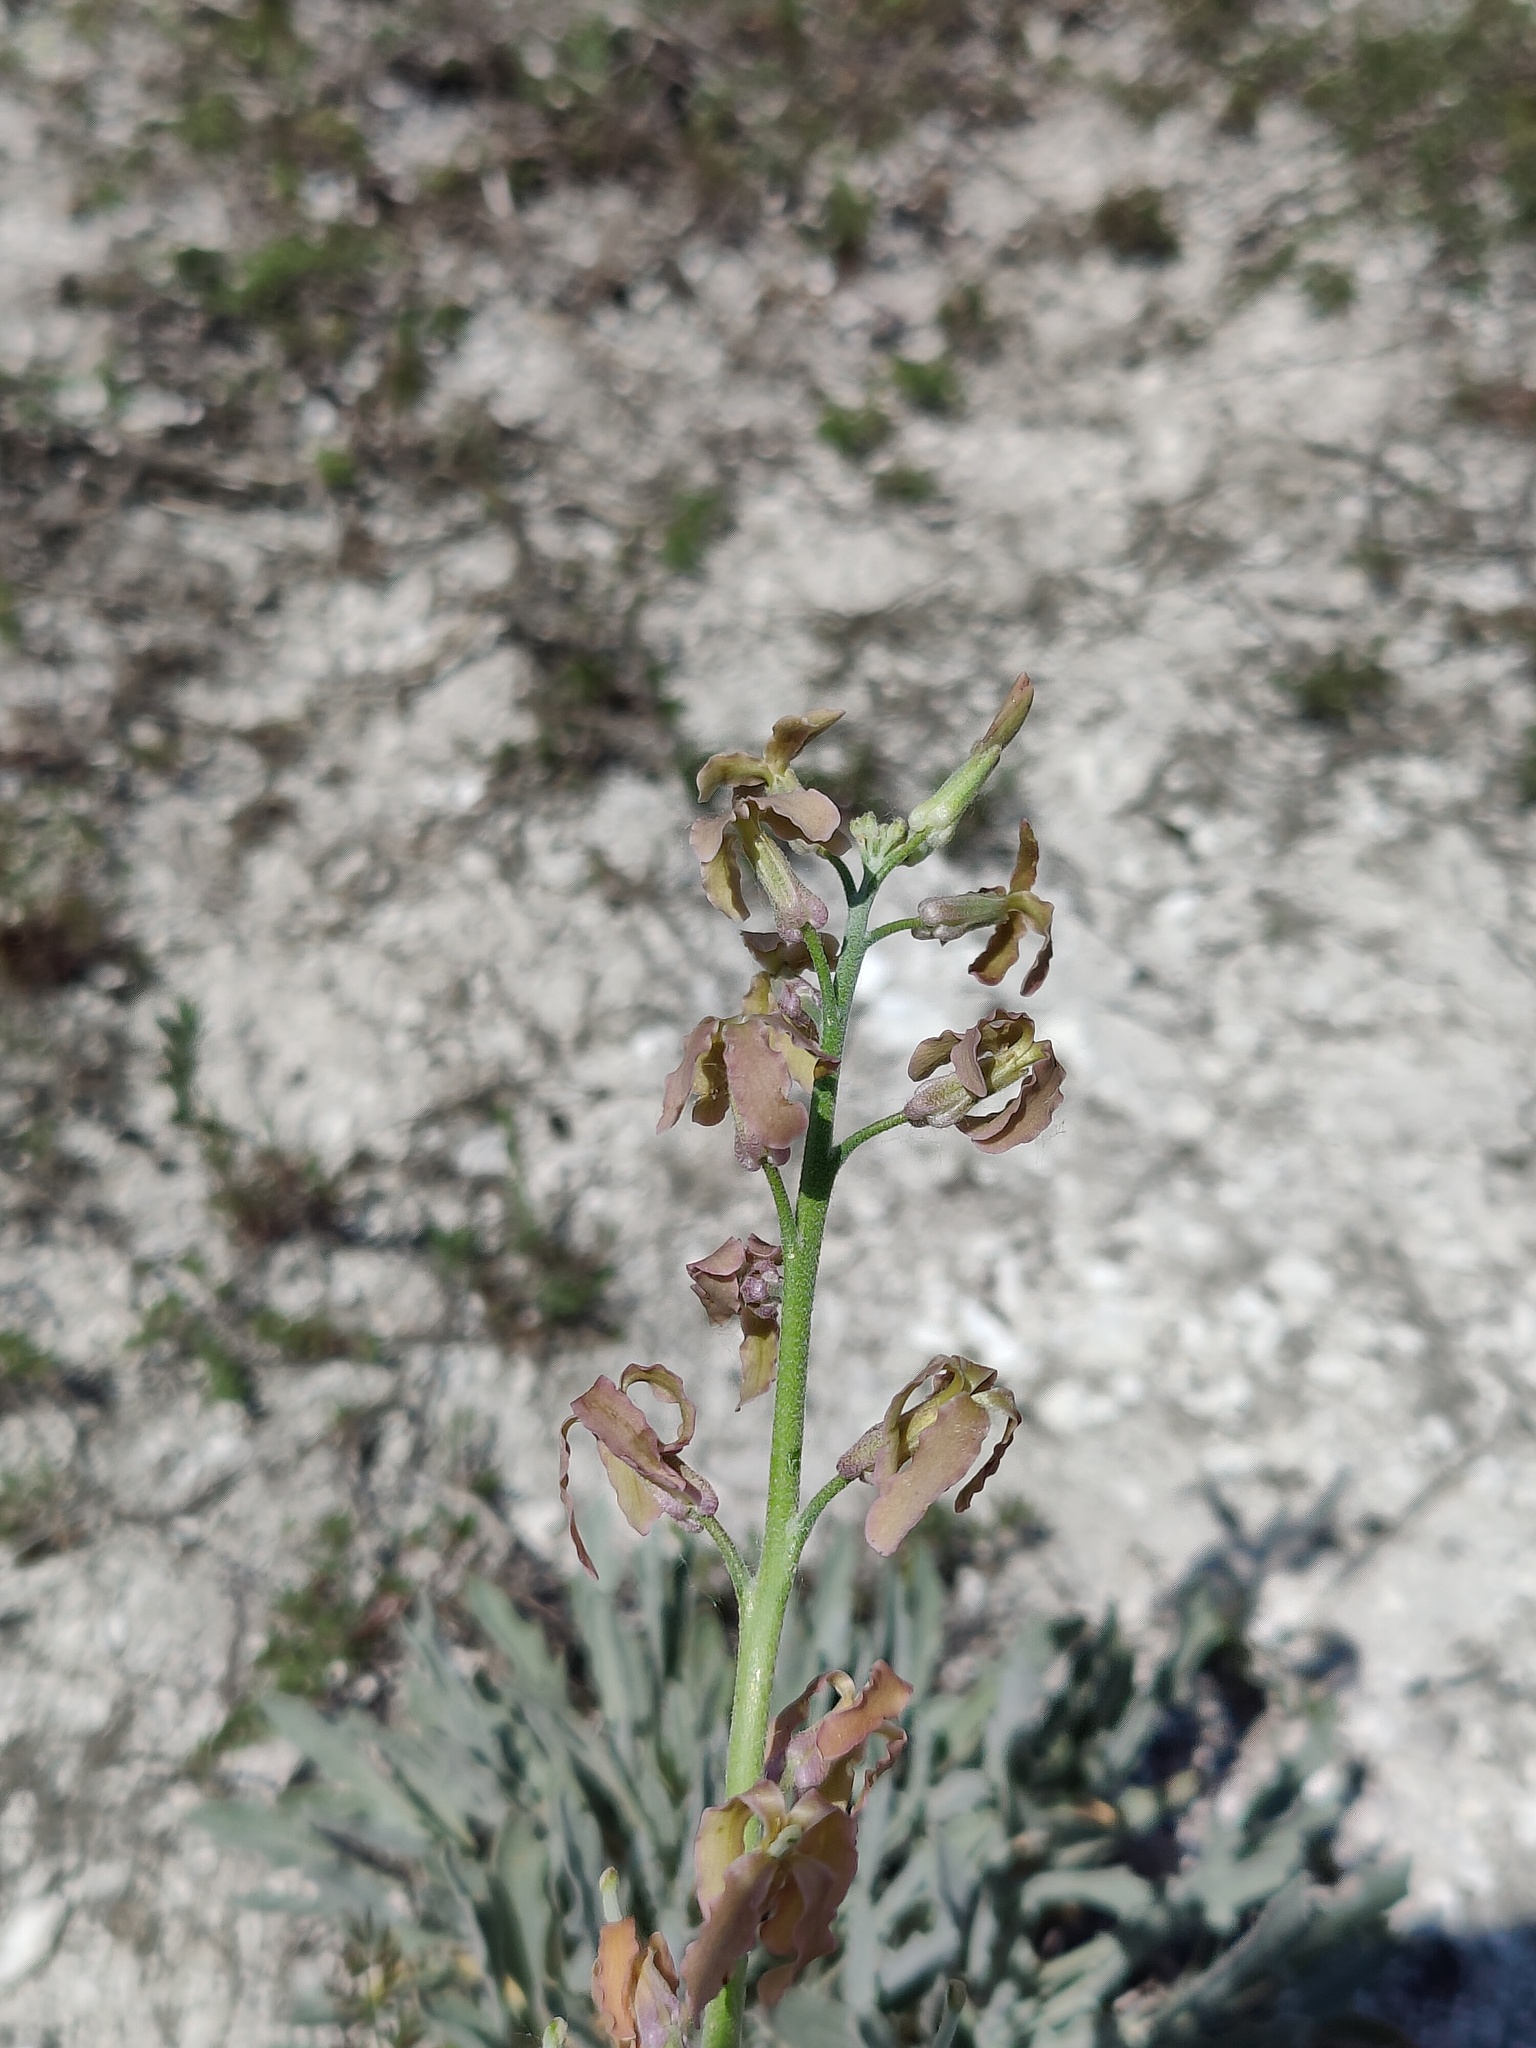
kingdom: Plantae
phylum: Tracheophyta
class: Magnoliopsida
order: Brassicales
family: Brassicaceae
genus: Matthiola
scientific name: Matthiola fragrans
